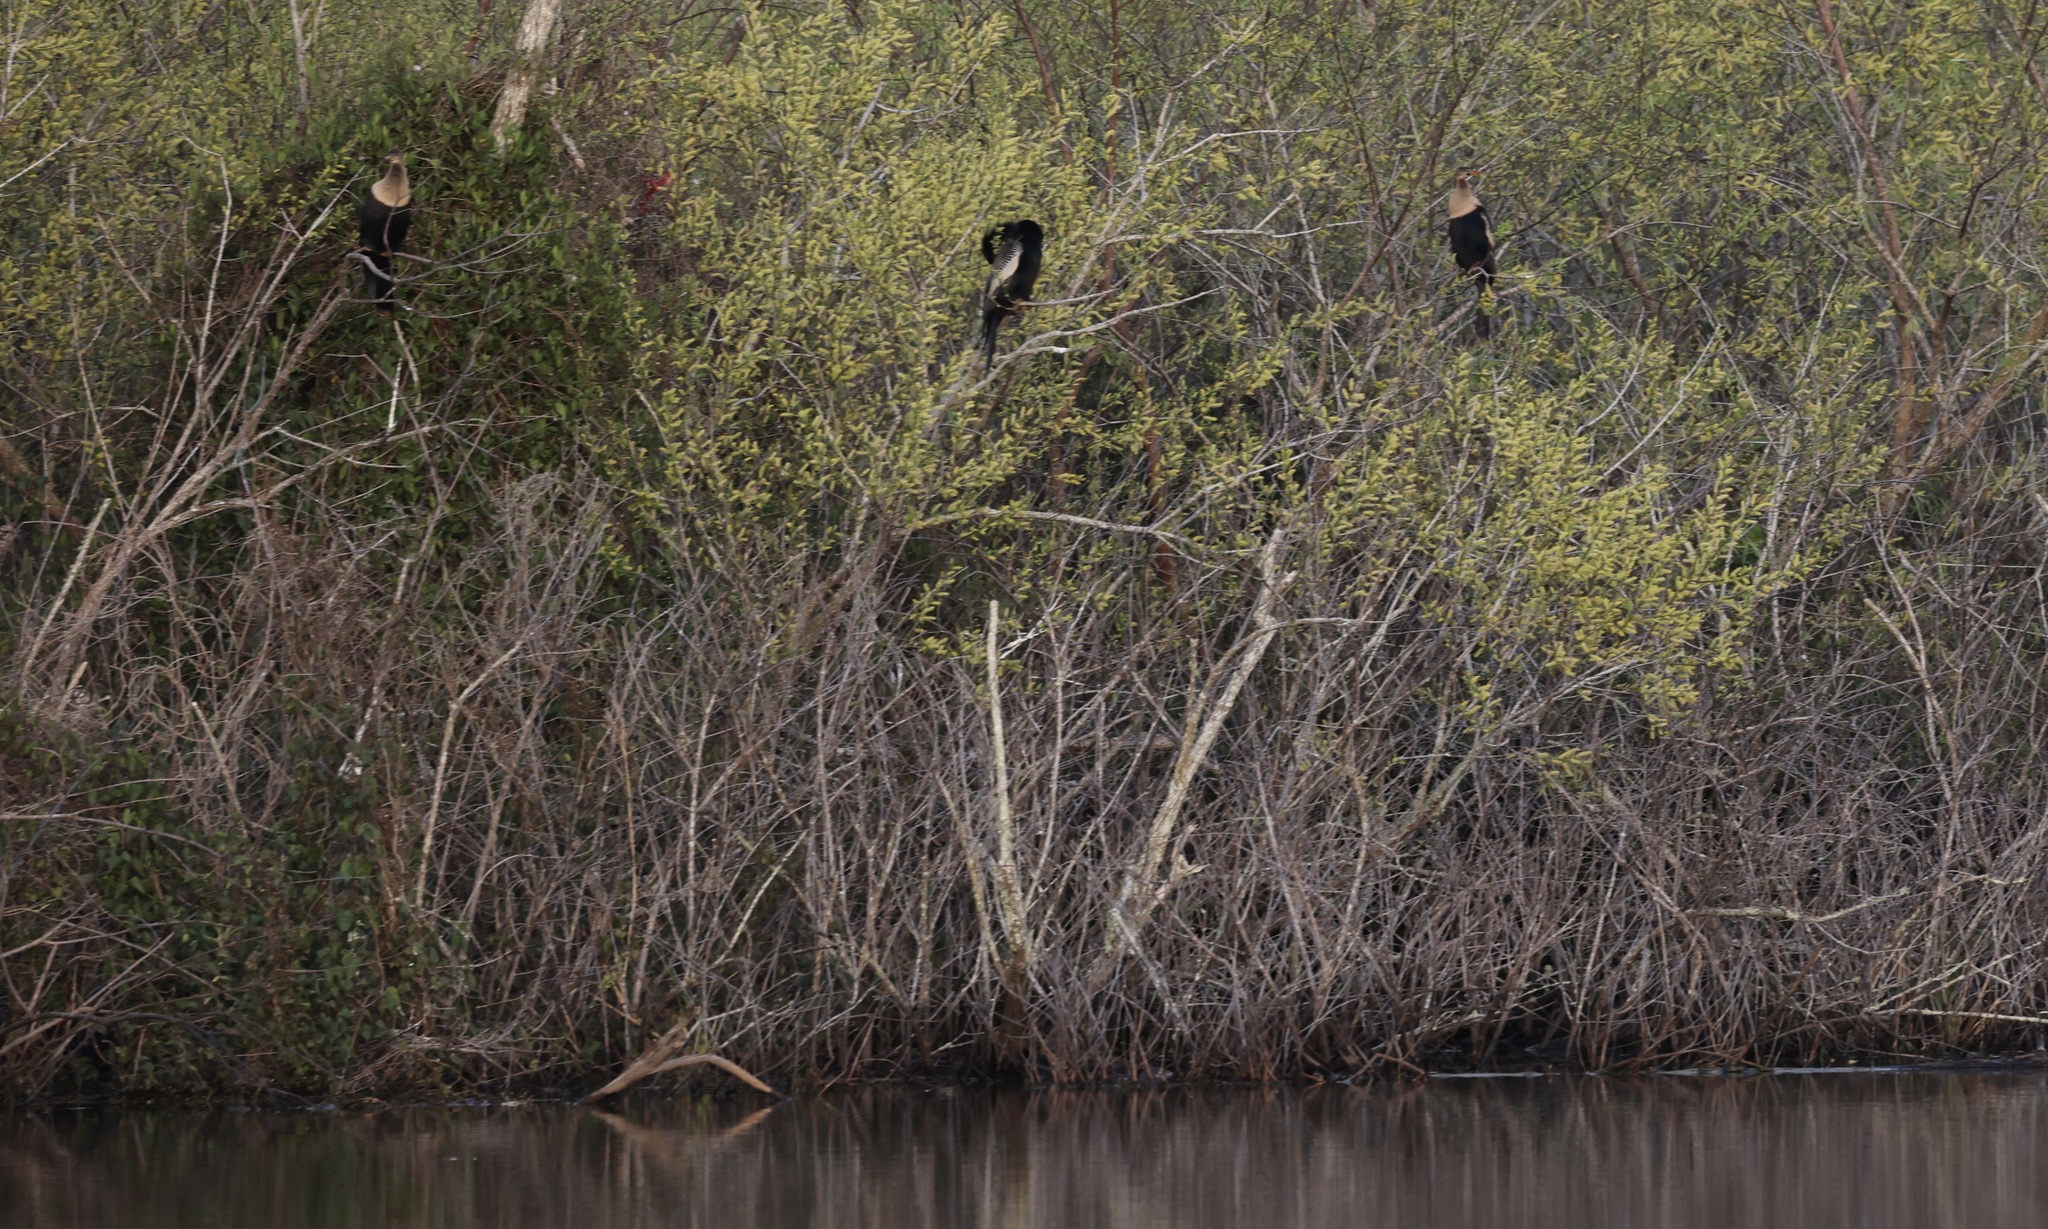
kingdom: Animalia
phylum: Chordata
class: Aves
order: Suliformes
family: Anhingidae
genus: Anhinga
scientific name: Anhinga anhinga
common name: Anhinga
